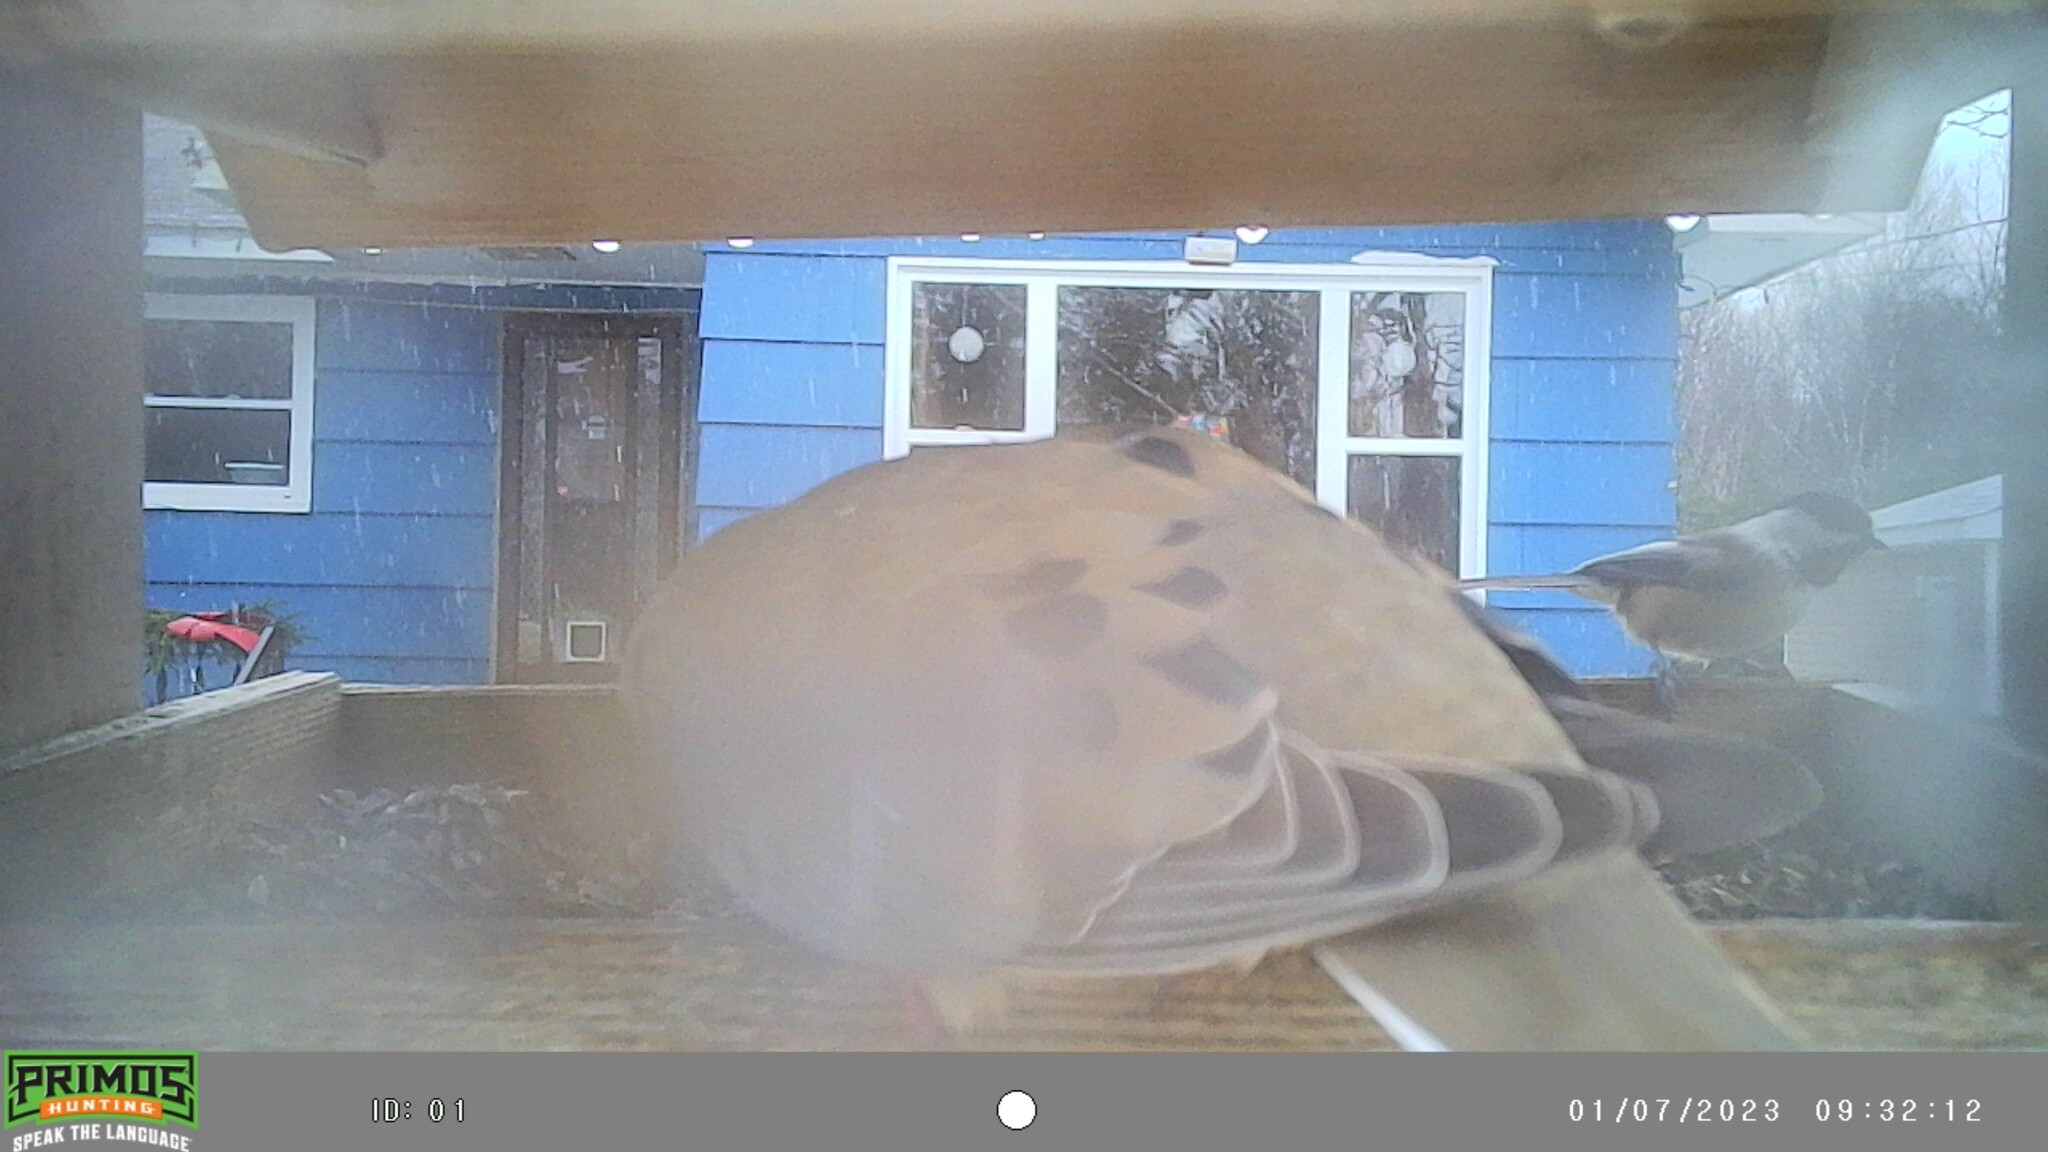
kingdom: Animalia
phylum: Chordata
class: Aves
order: Columbiformes
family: Columbidae
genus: Zenaida
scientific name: Zenaida macroura
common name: Mourning dove
